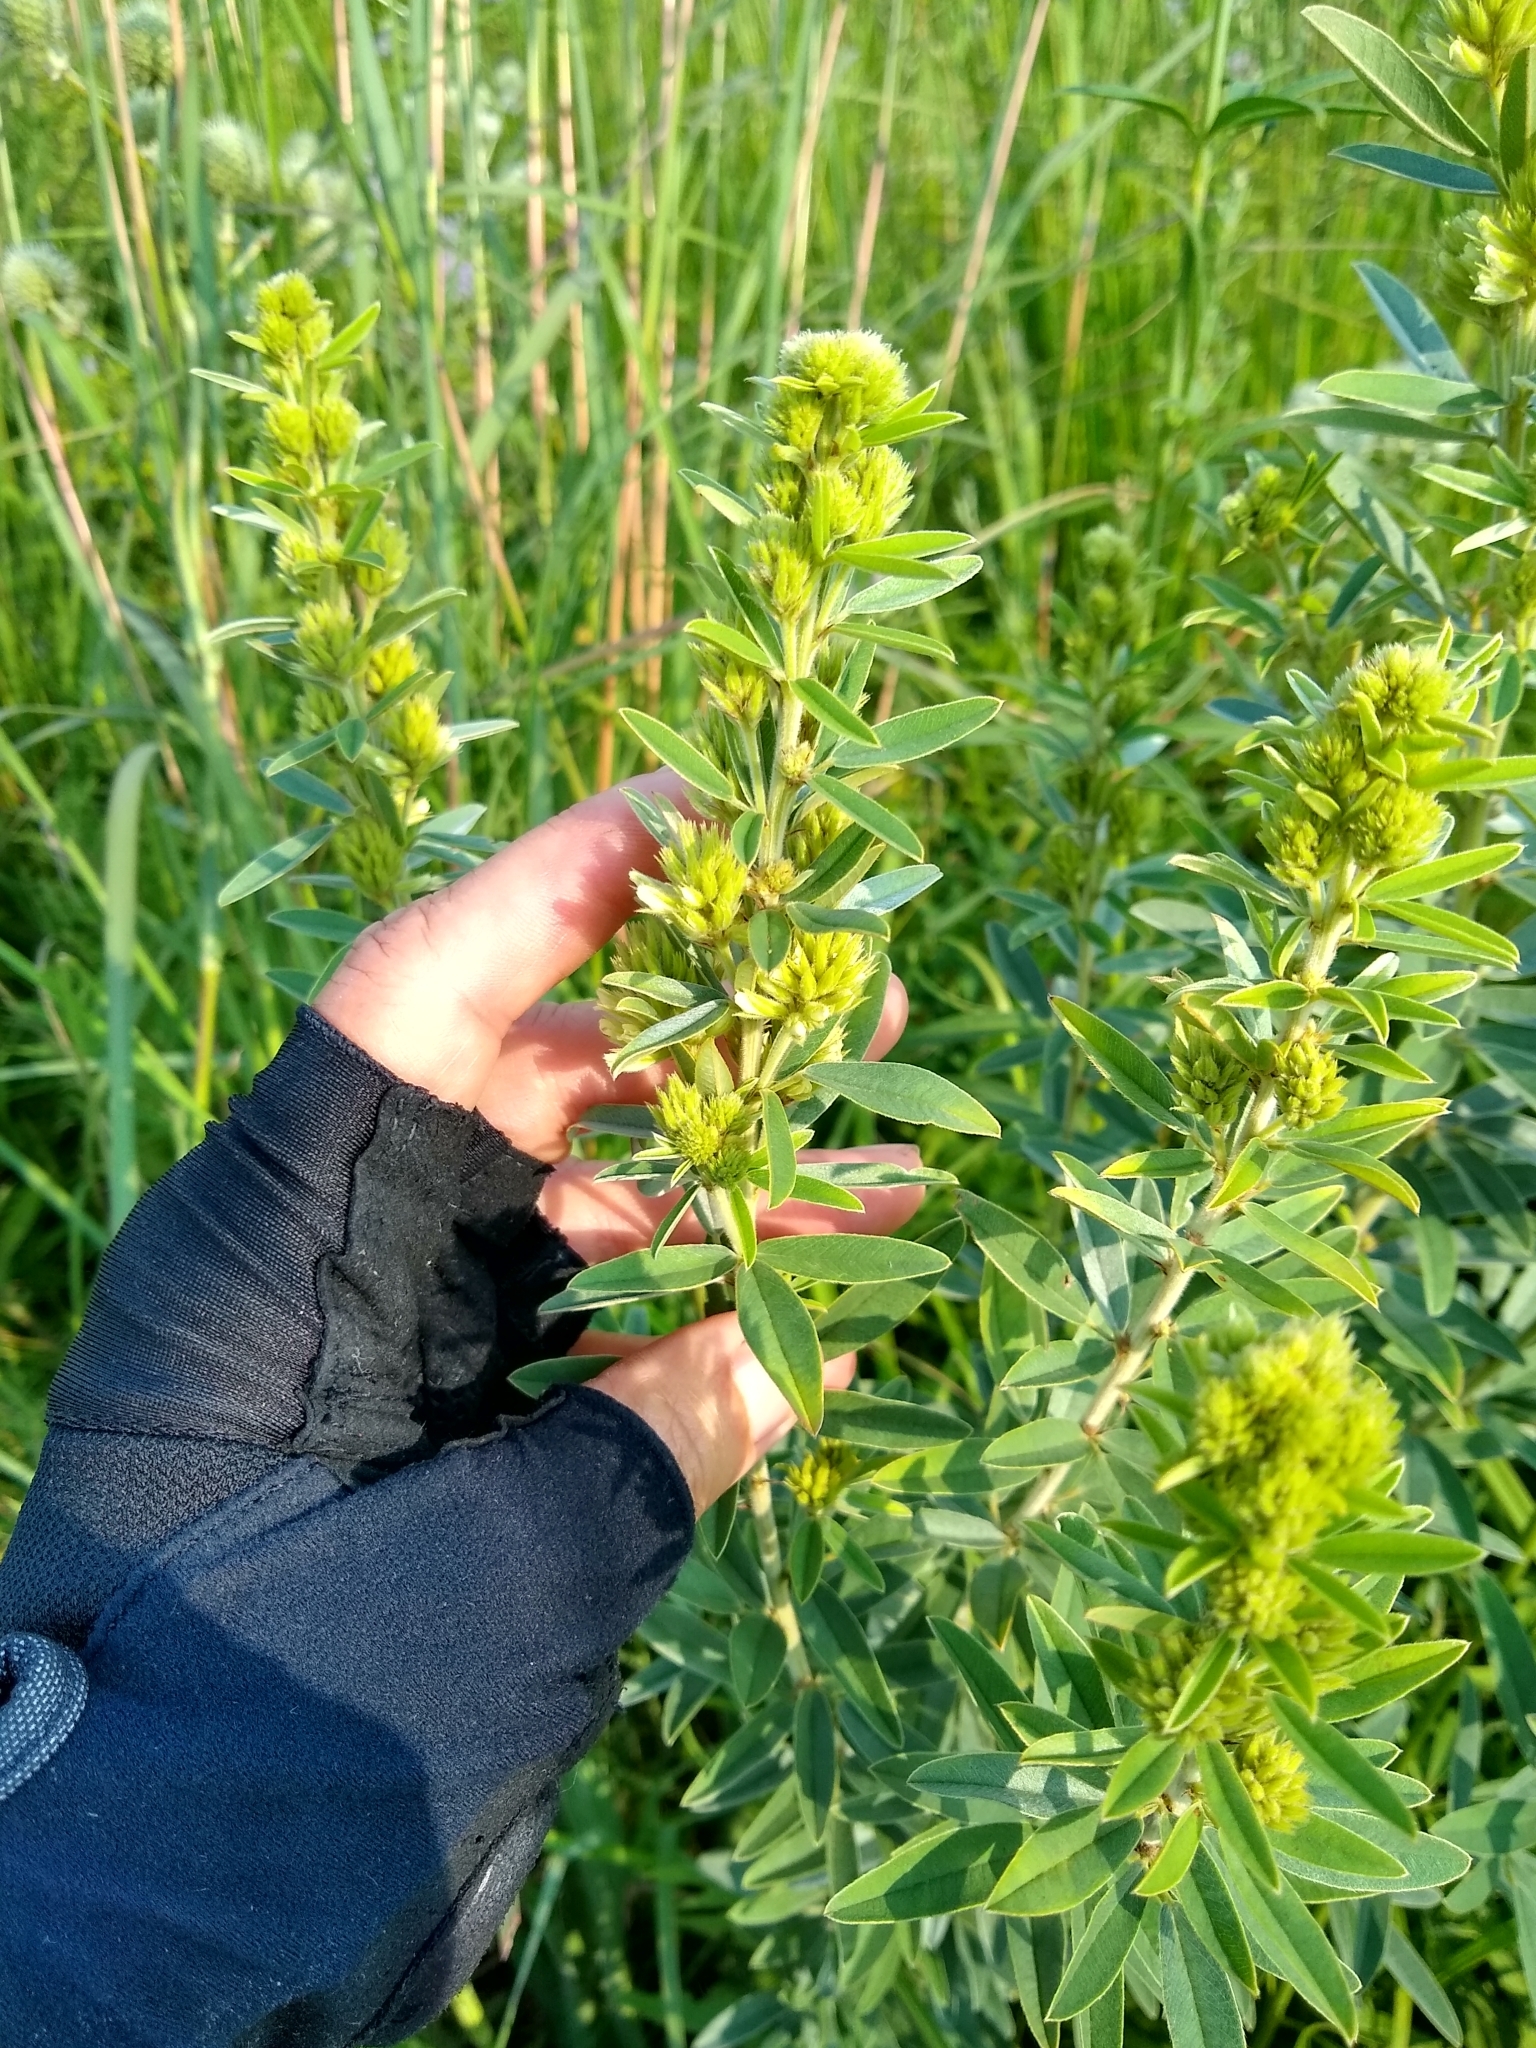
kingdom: Plantae
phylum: Tracheophyta
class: Magnoliopsida
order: Fabales
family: Fabaceae
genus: Lespedeza
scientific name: Lespedeza capitata
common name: Dusty clover
